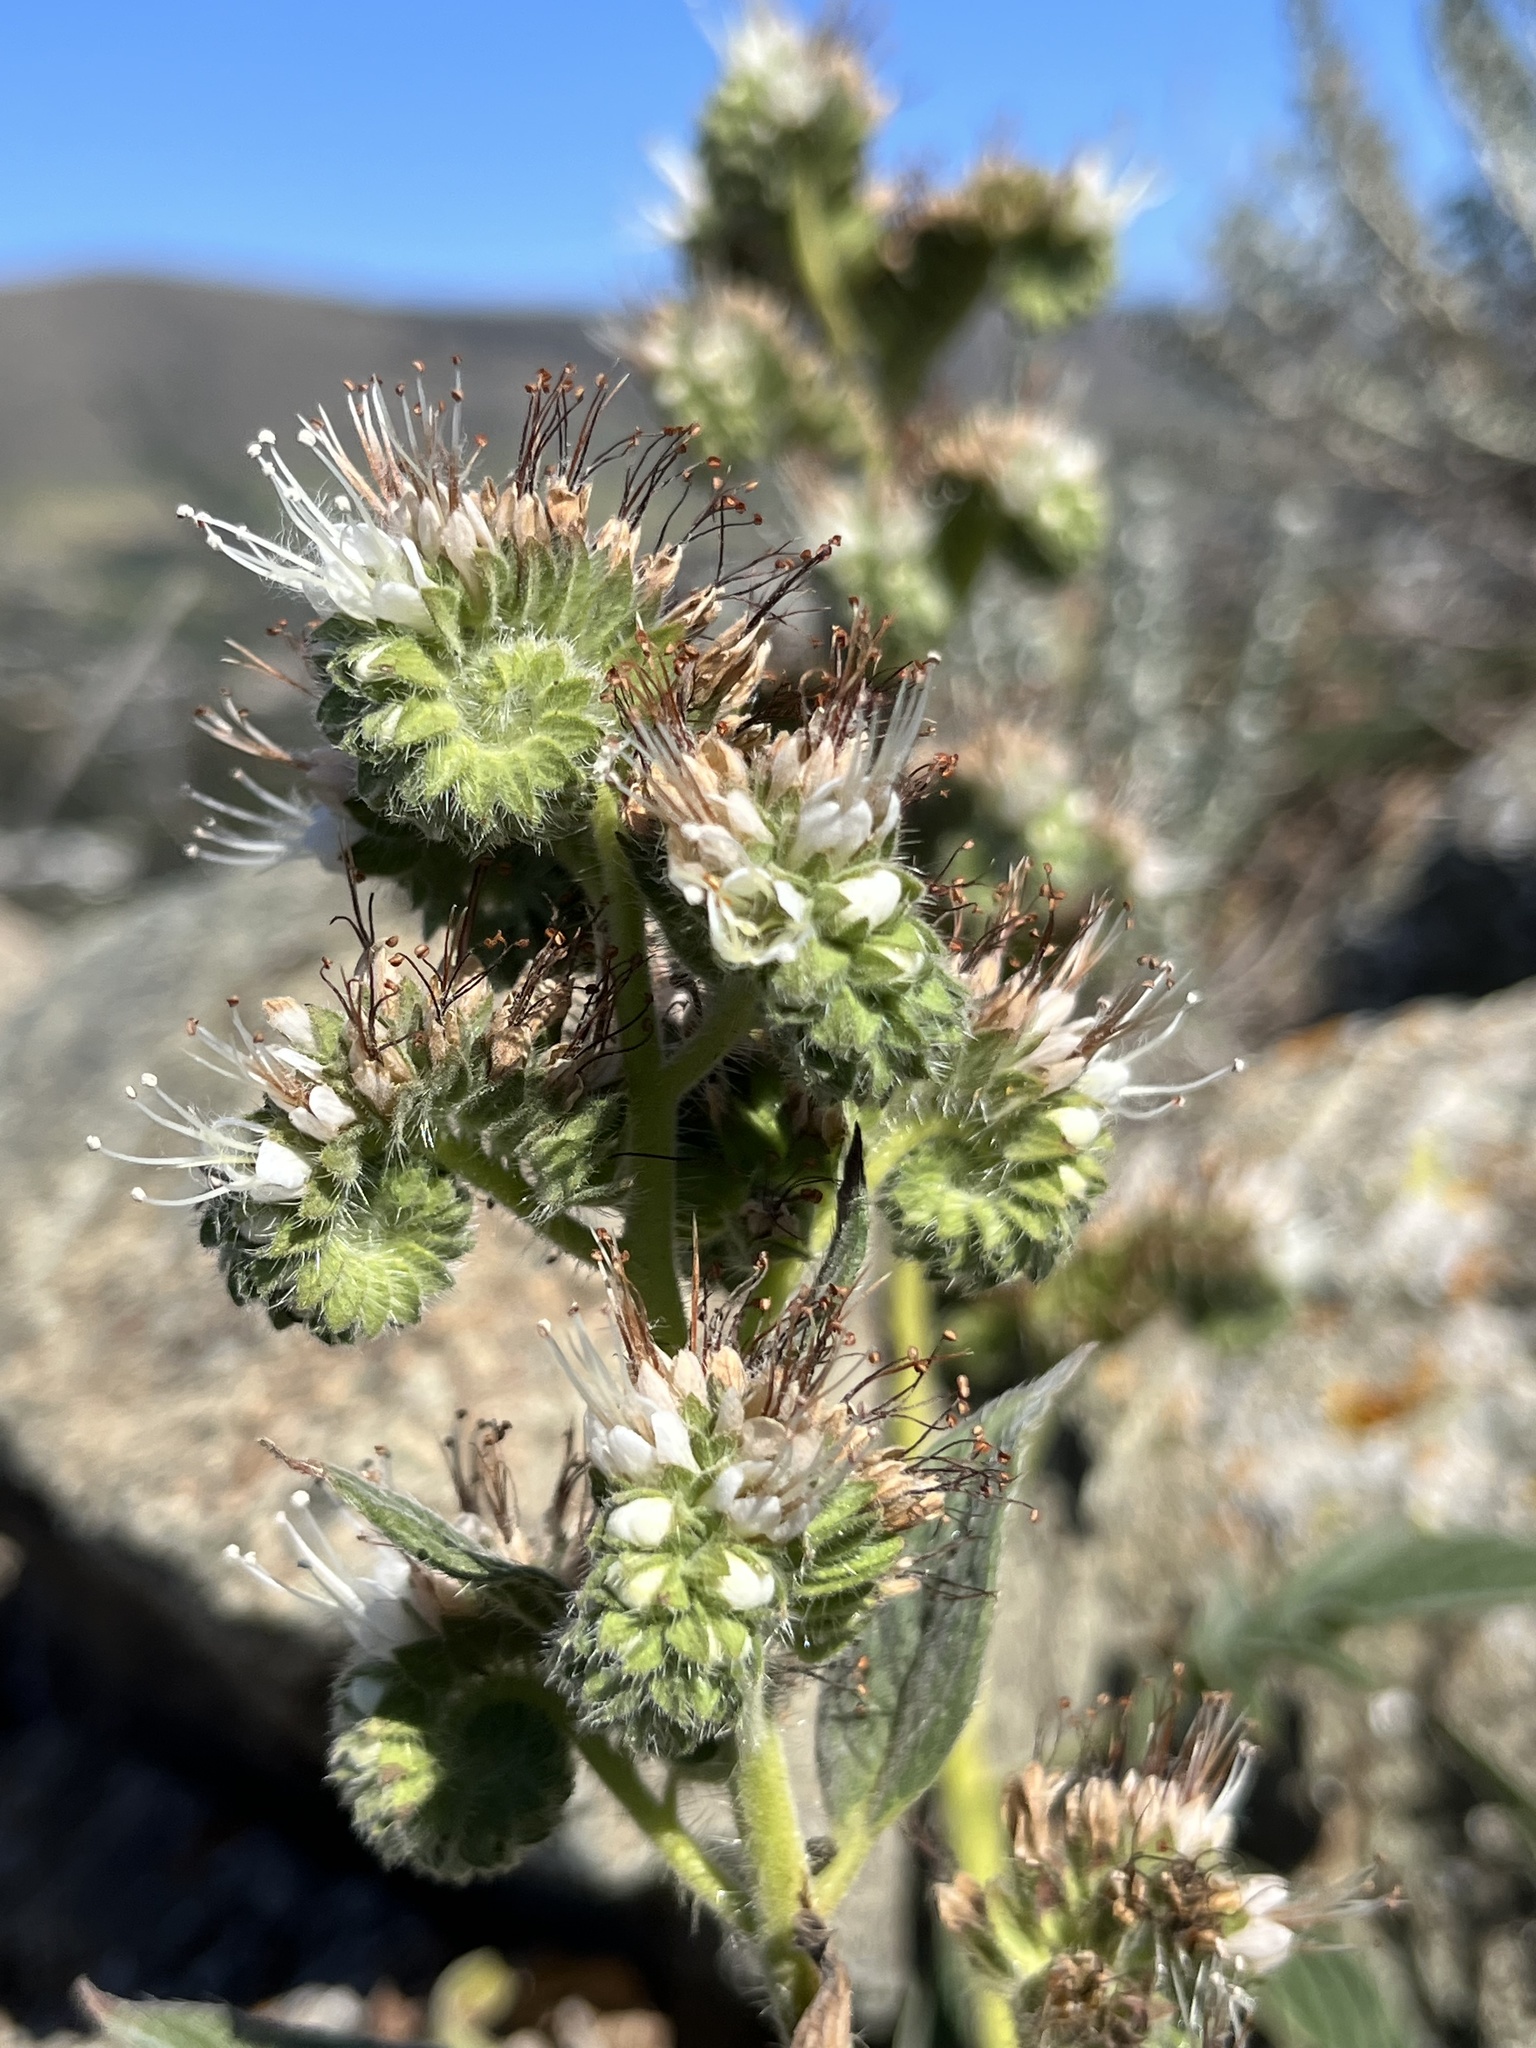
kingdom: Plantae
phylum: Tracheophyta
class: Magnoliopsida
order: Boraginales
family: Hydrophyllaceae
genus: Phacelia
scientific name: Phacelia imbricata
